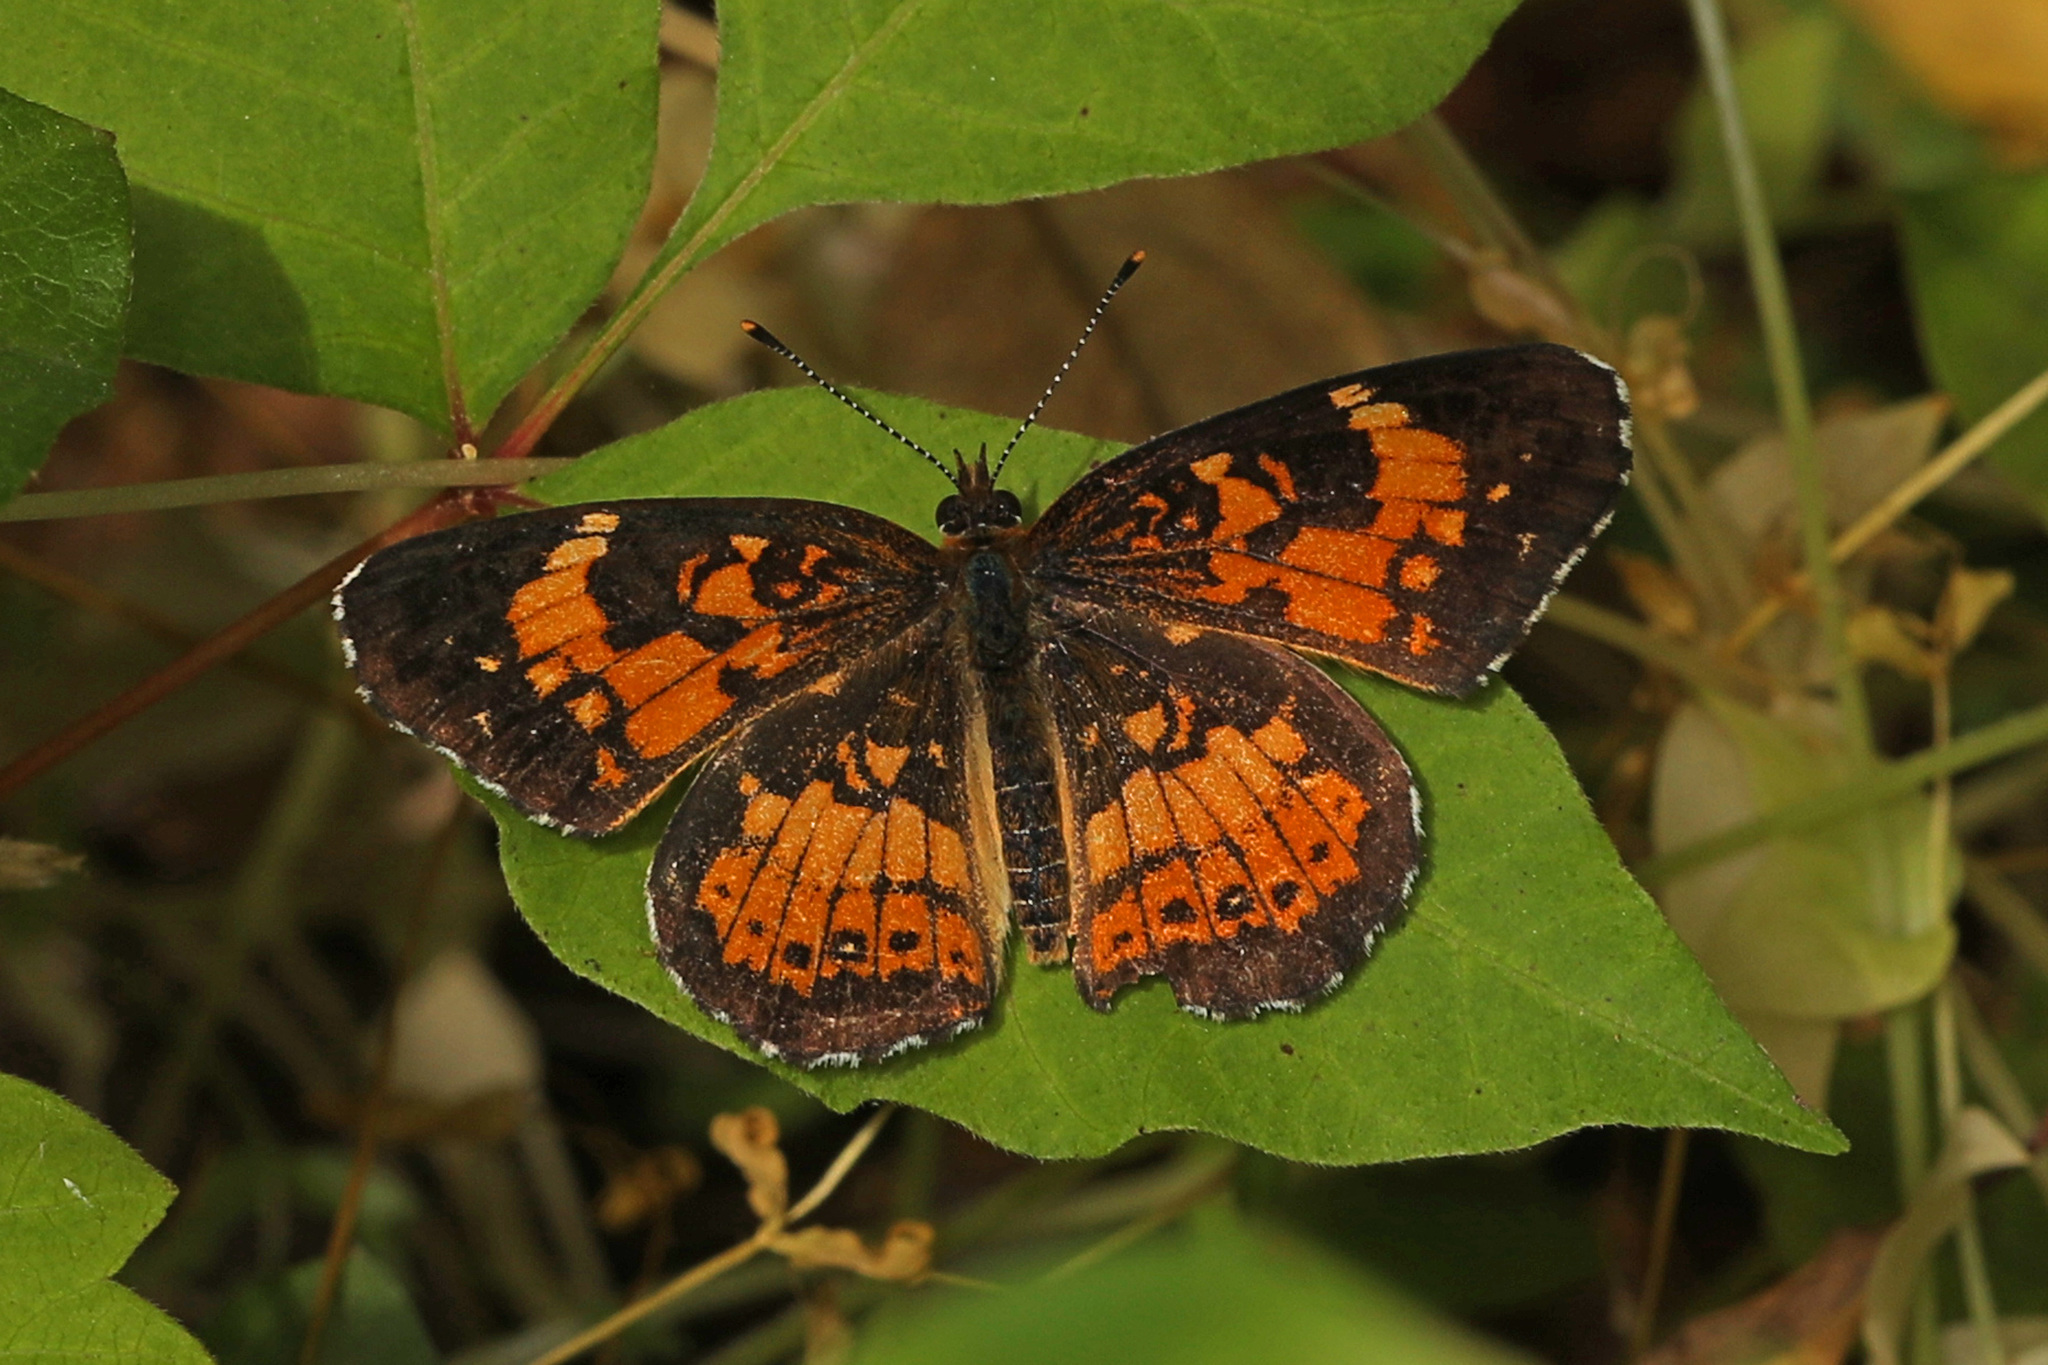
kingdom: Animalia
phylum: Arthropoda
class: Insecta
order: Lepidoptera
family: Nymphalidae
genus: Chlosyne
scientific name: Chlosyne nycteis
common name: Silvery checkerspot
